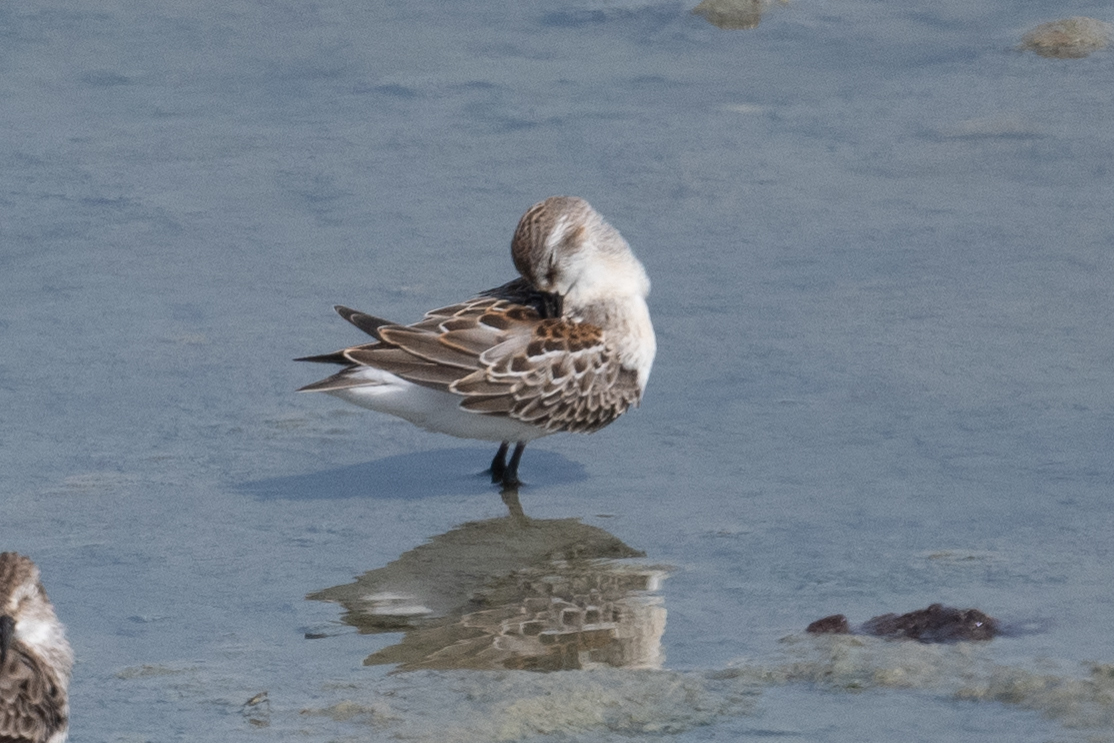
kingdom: Animalia
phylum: Chordata
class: Aves
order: Charadriiformes
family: Scolopacidae
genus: Calidris
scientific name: Calidris mauri
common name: Western sandpiper
